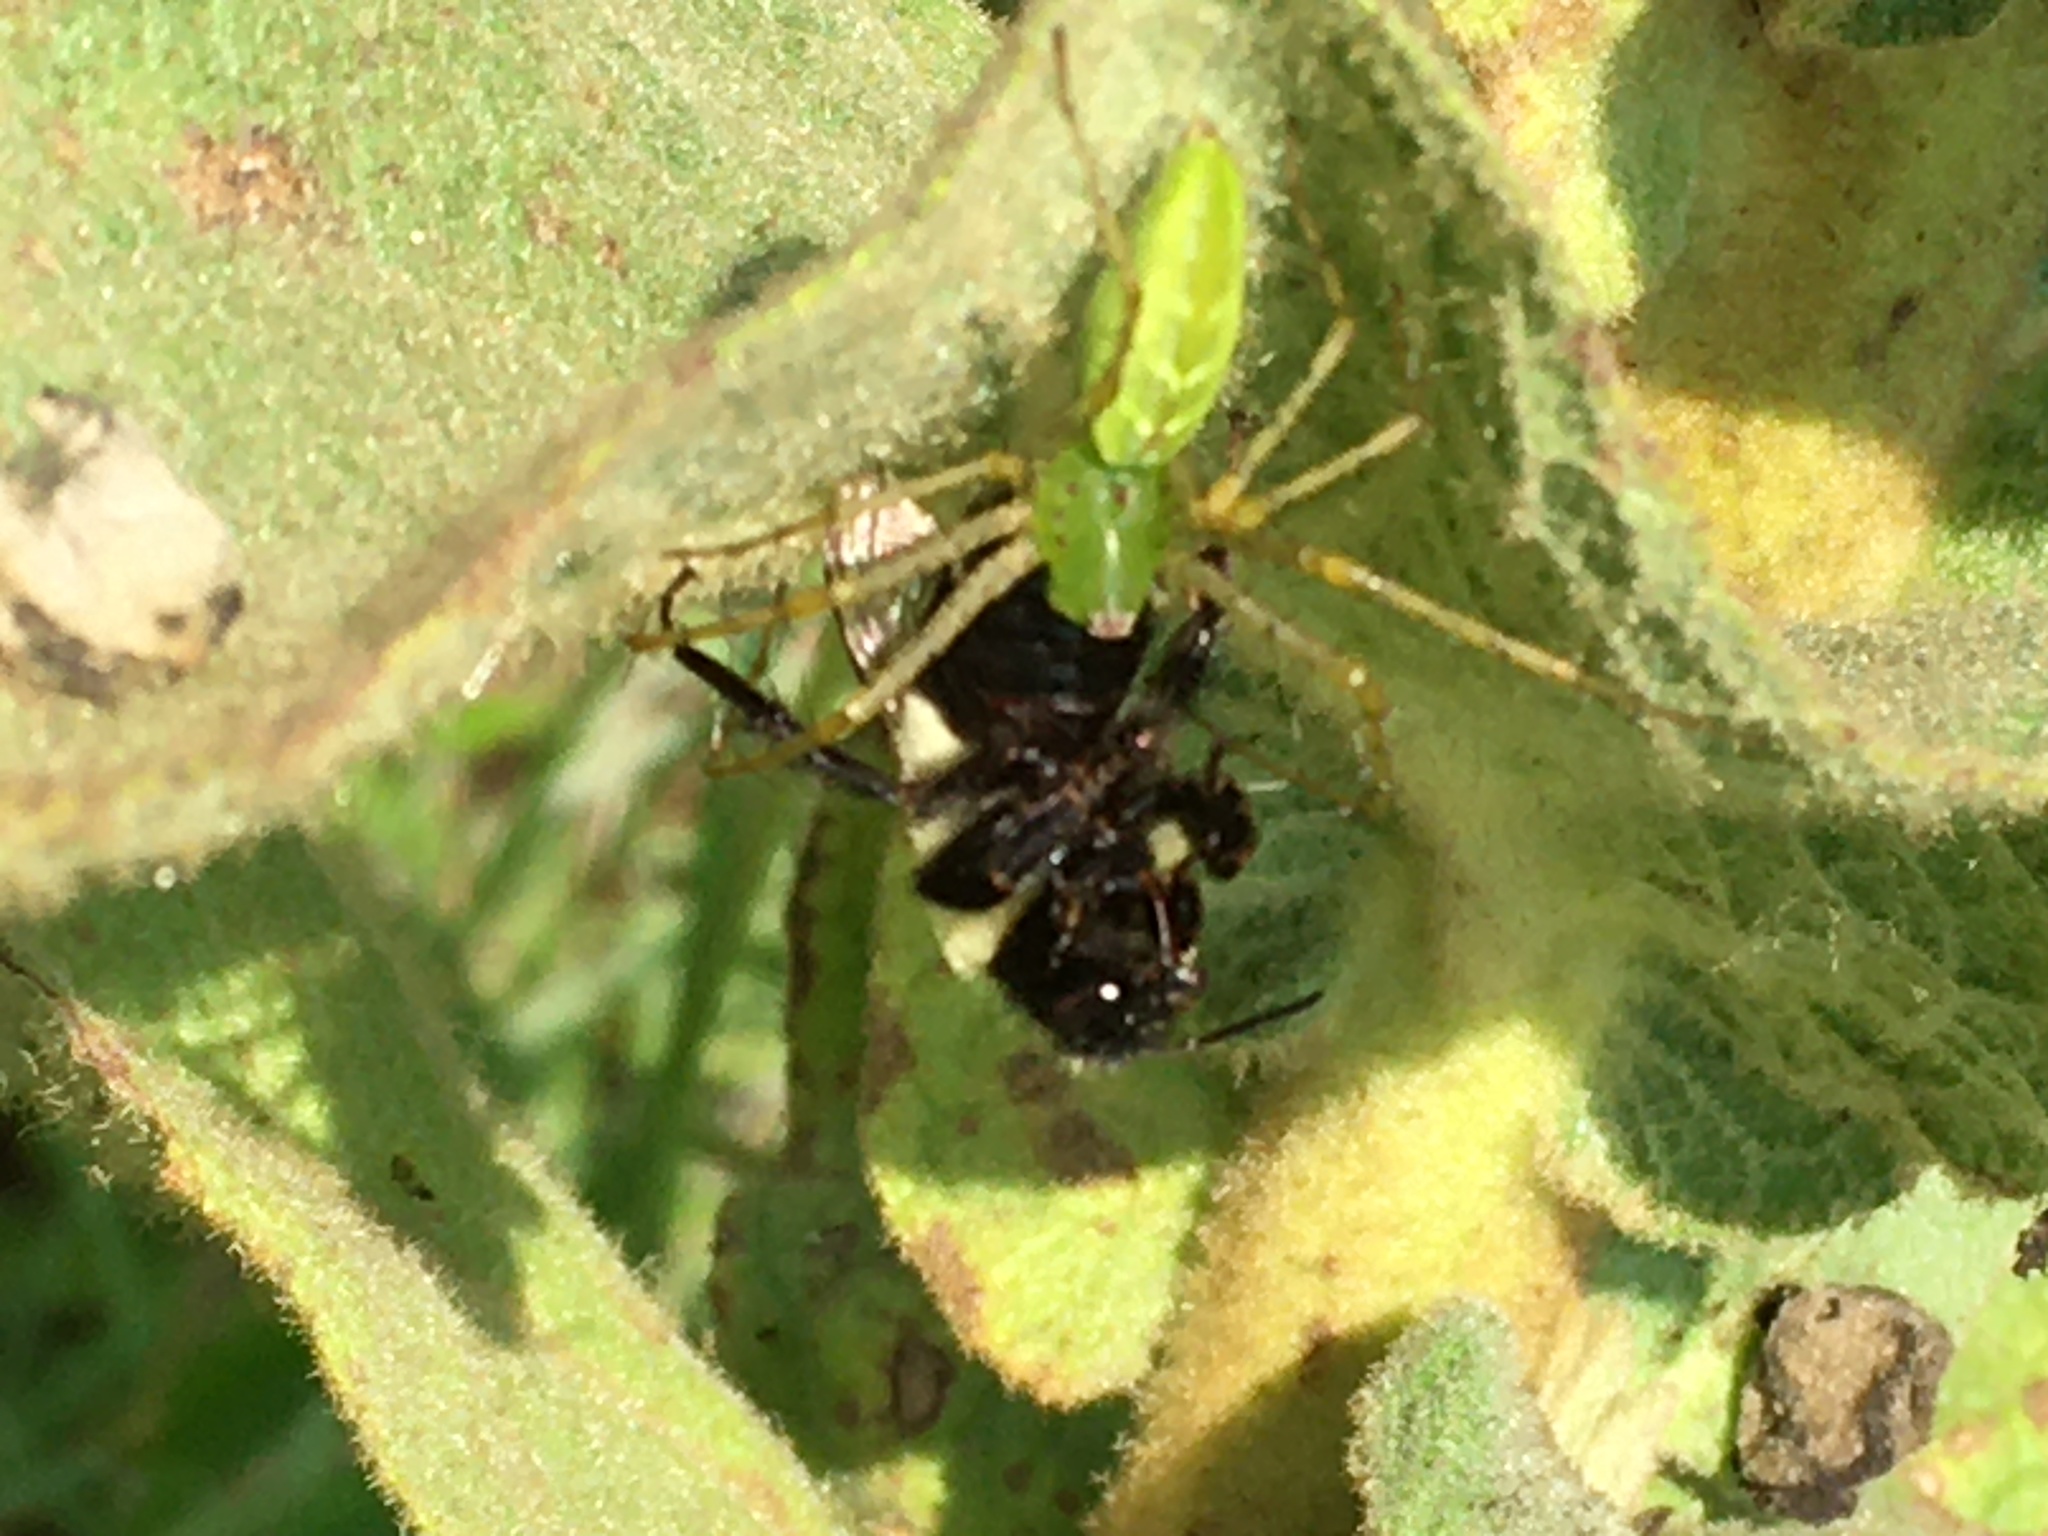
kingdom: Animalia
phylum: Arthropoda
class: Arachnida
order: Araneae
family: Oxyopidae
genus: Peucetia
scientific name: Peucetia viridans
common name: Lynx spiders
